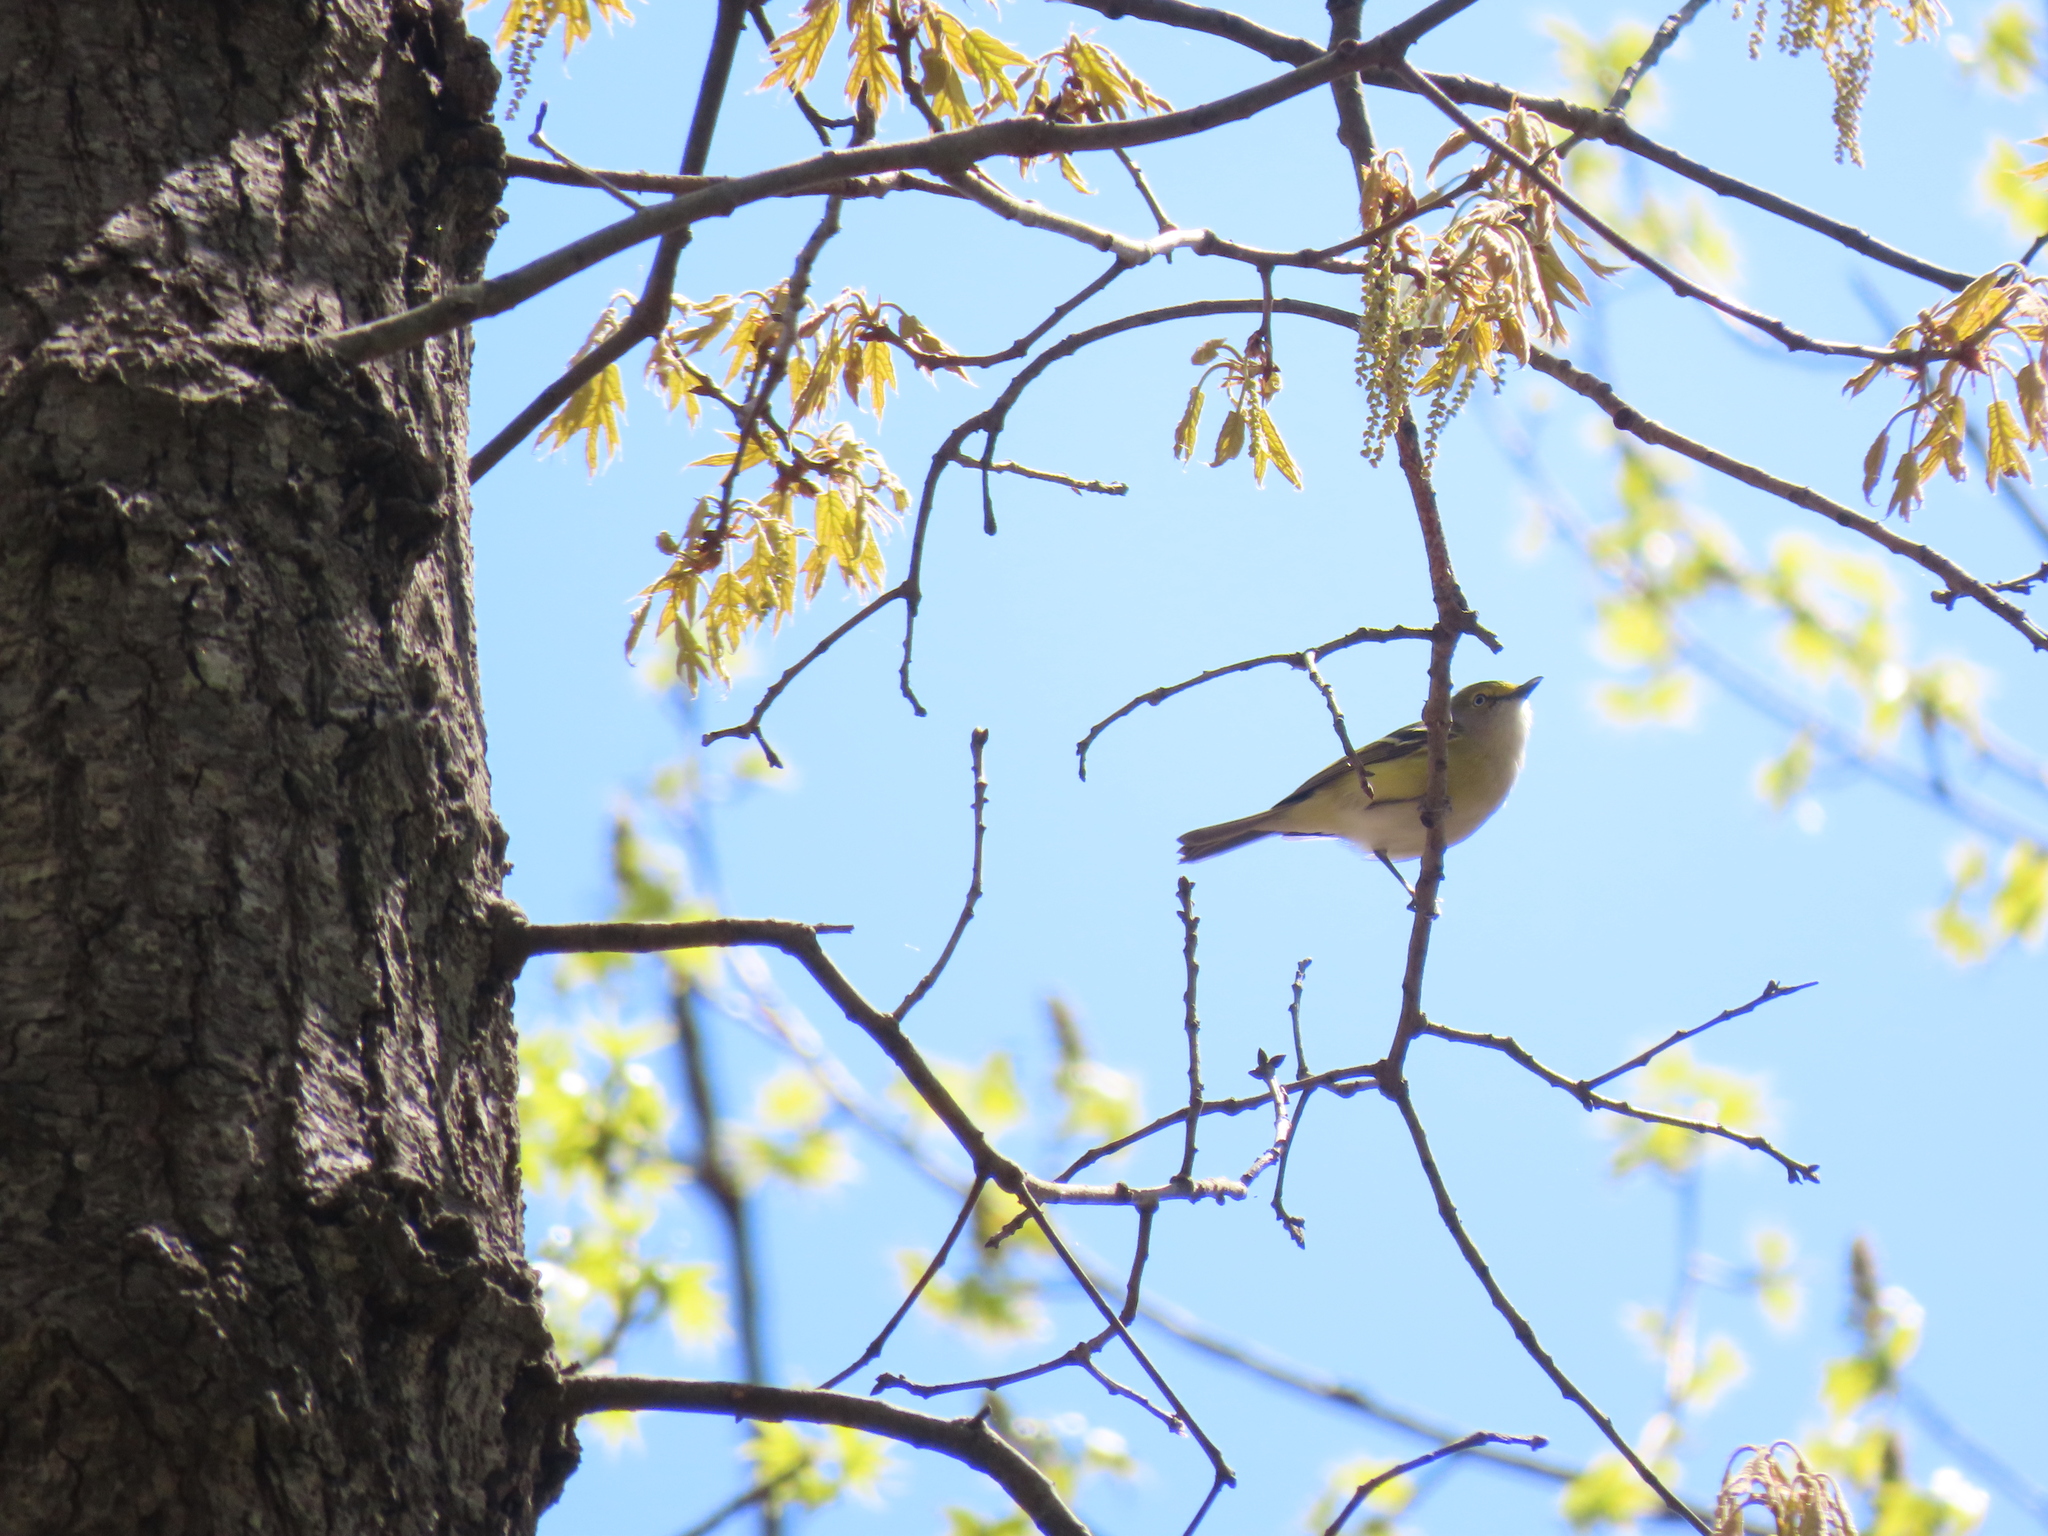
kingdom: Animalia
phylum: Chordata
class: Aves
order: Passeriformes
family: Vireonidae
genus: Vireo
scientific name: Vireo griseus
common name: White-eyed vireo
